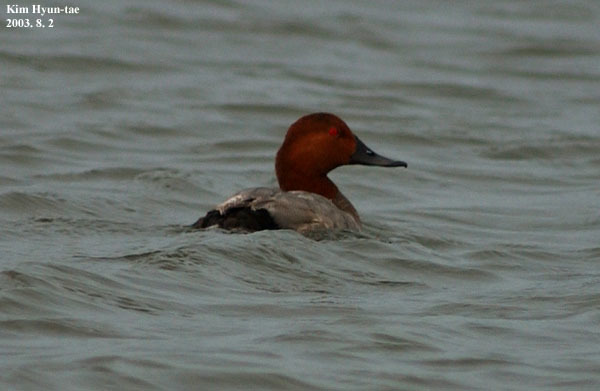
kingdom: Animalia
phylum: Chordata
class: Aves
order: Anseriformes
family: Anatidae
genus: Aythya
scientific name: Aythya ferina
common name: Common pochard
